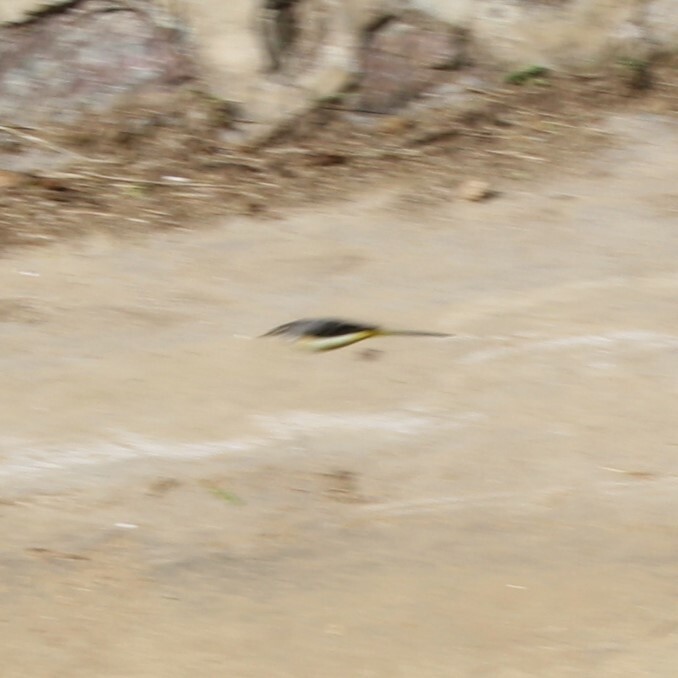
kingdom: Animalia
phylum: Chordata
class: Aves
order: Passeriformes
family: Motacillidae
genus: Motacilla
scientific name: Motacilla cinerea
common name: Grey wagtail
